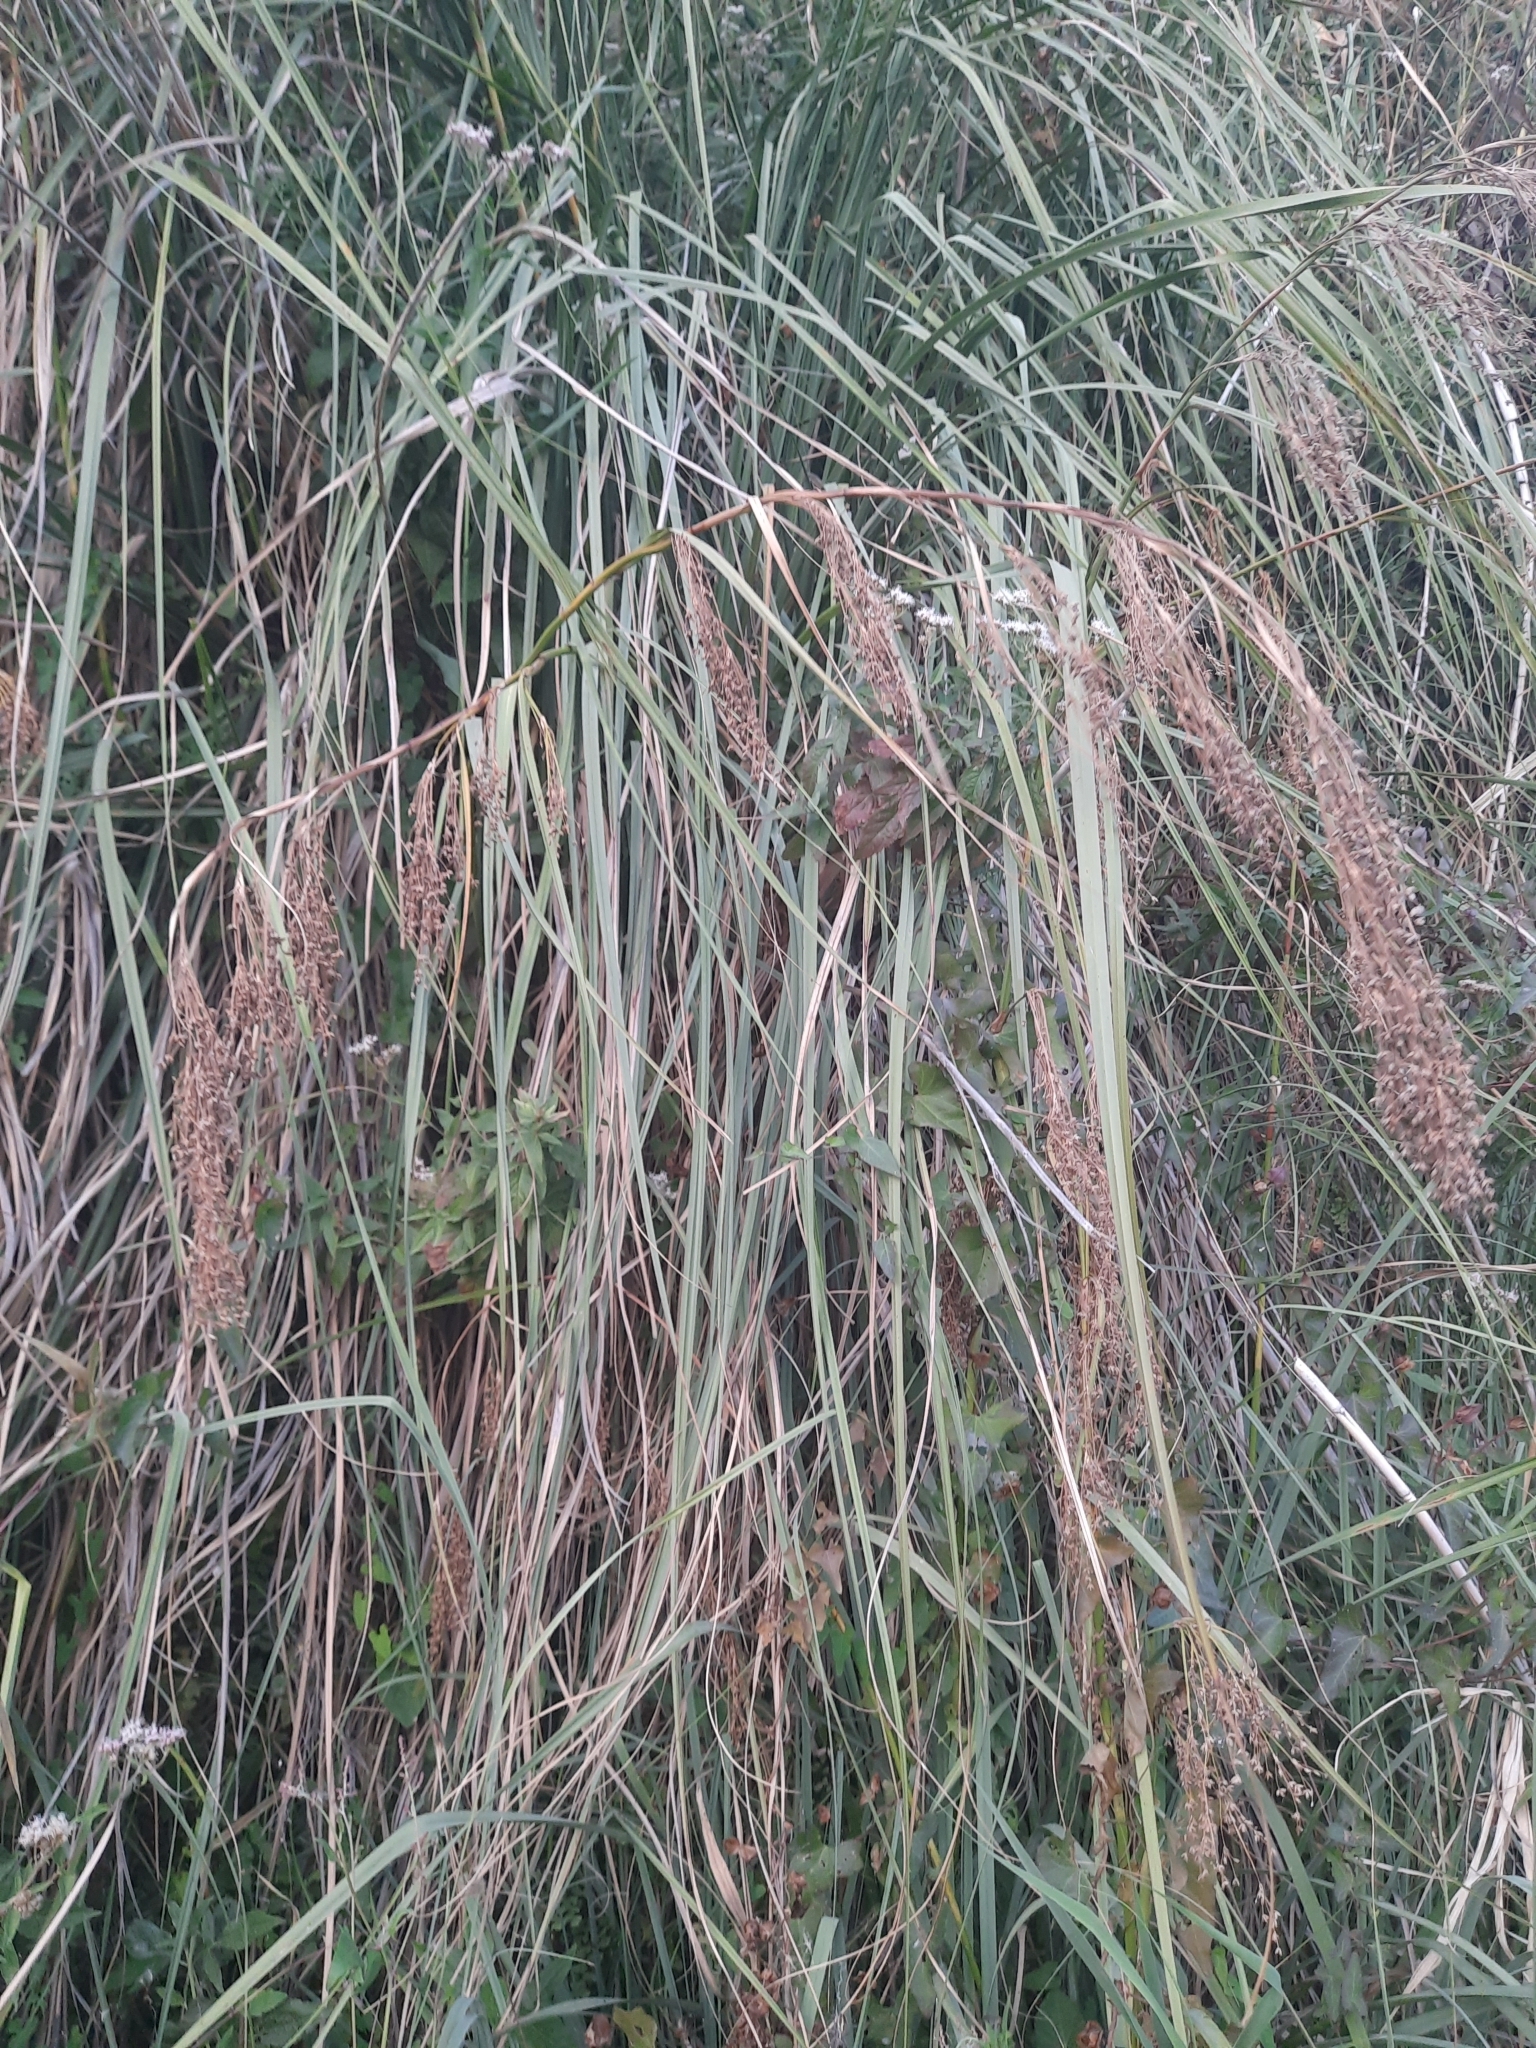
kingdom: Plantae
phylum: Tracheophyta
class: Liliopsida
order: Poales
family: Cyperaceae
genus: Cladium
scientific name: Cladium mariscus
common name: Great fen-sedge
